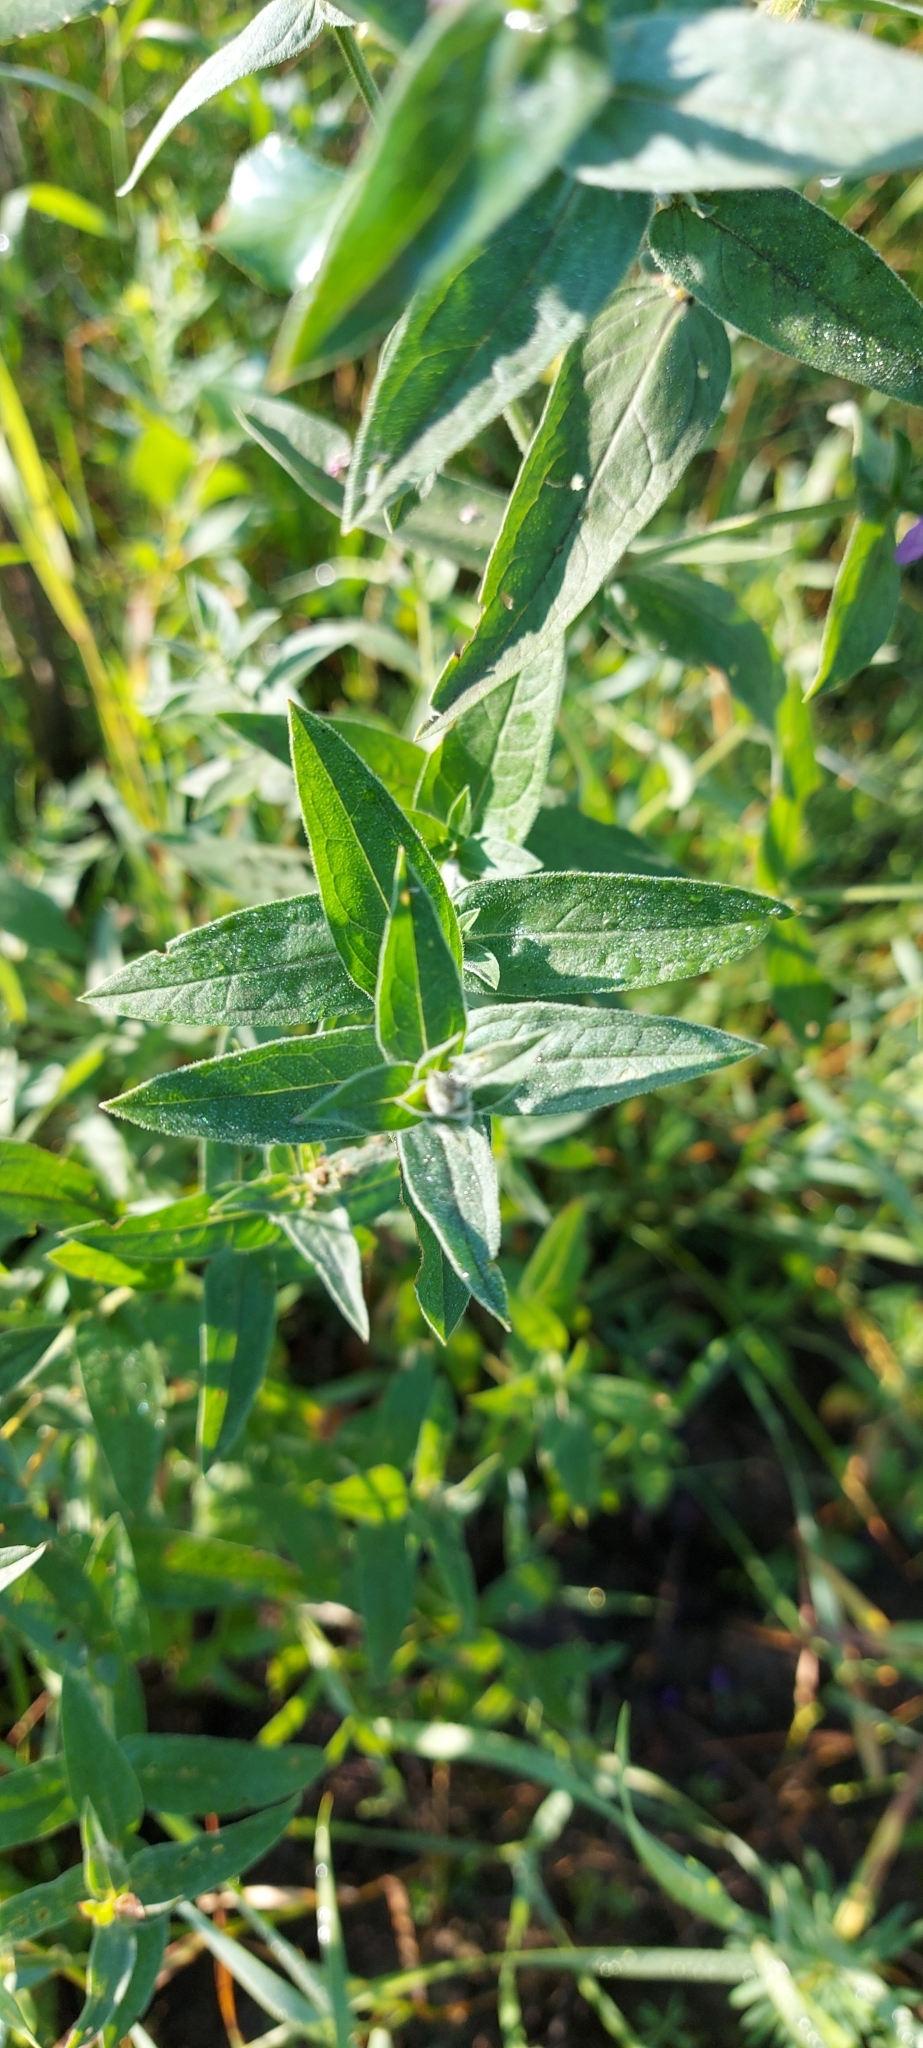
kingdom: Plantae
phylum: Tracheophyta
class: Magnoliopsida
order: Myrtales
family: Lythraceae
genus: Lythrum
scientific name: Lythrum salicaria
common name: Purple loosestrife
